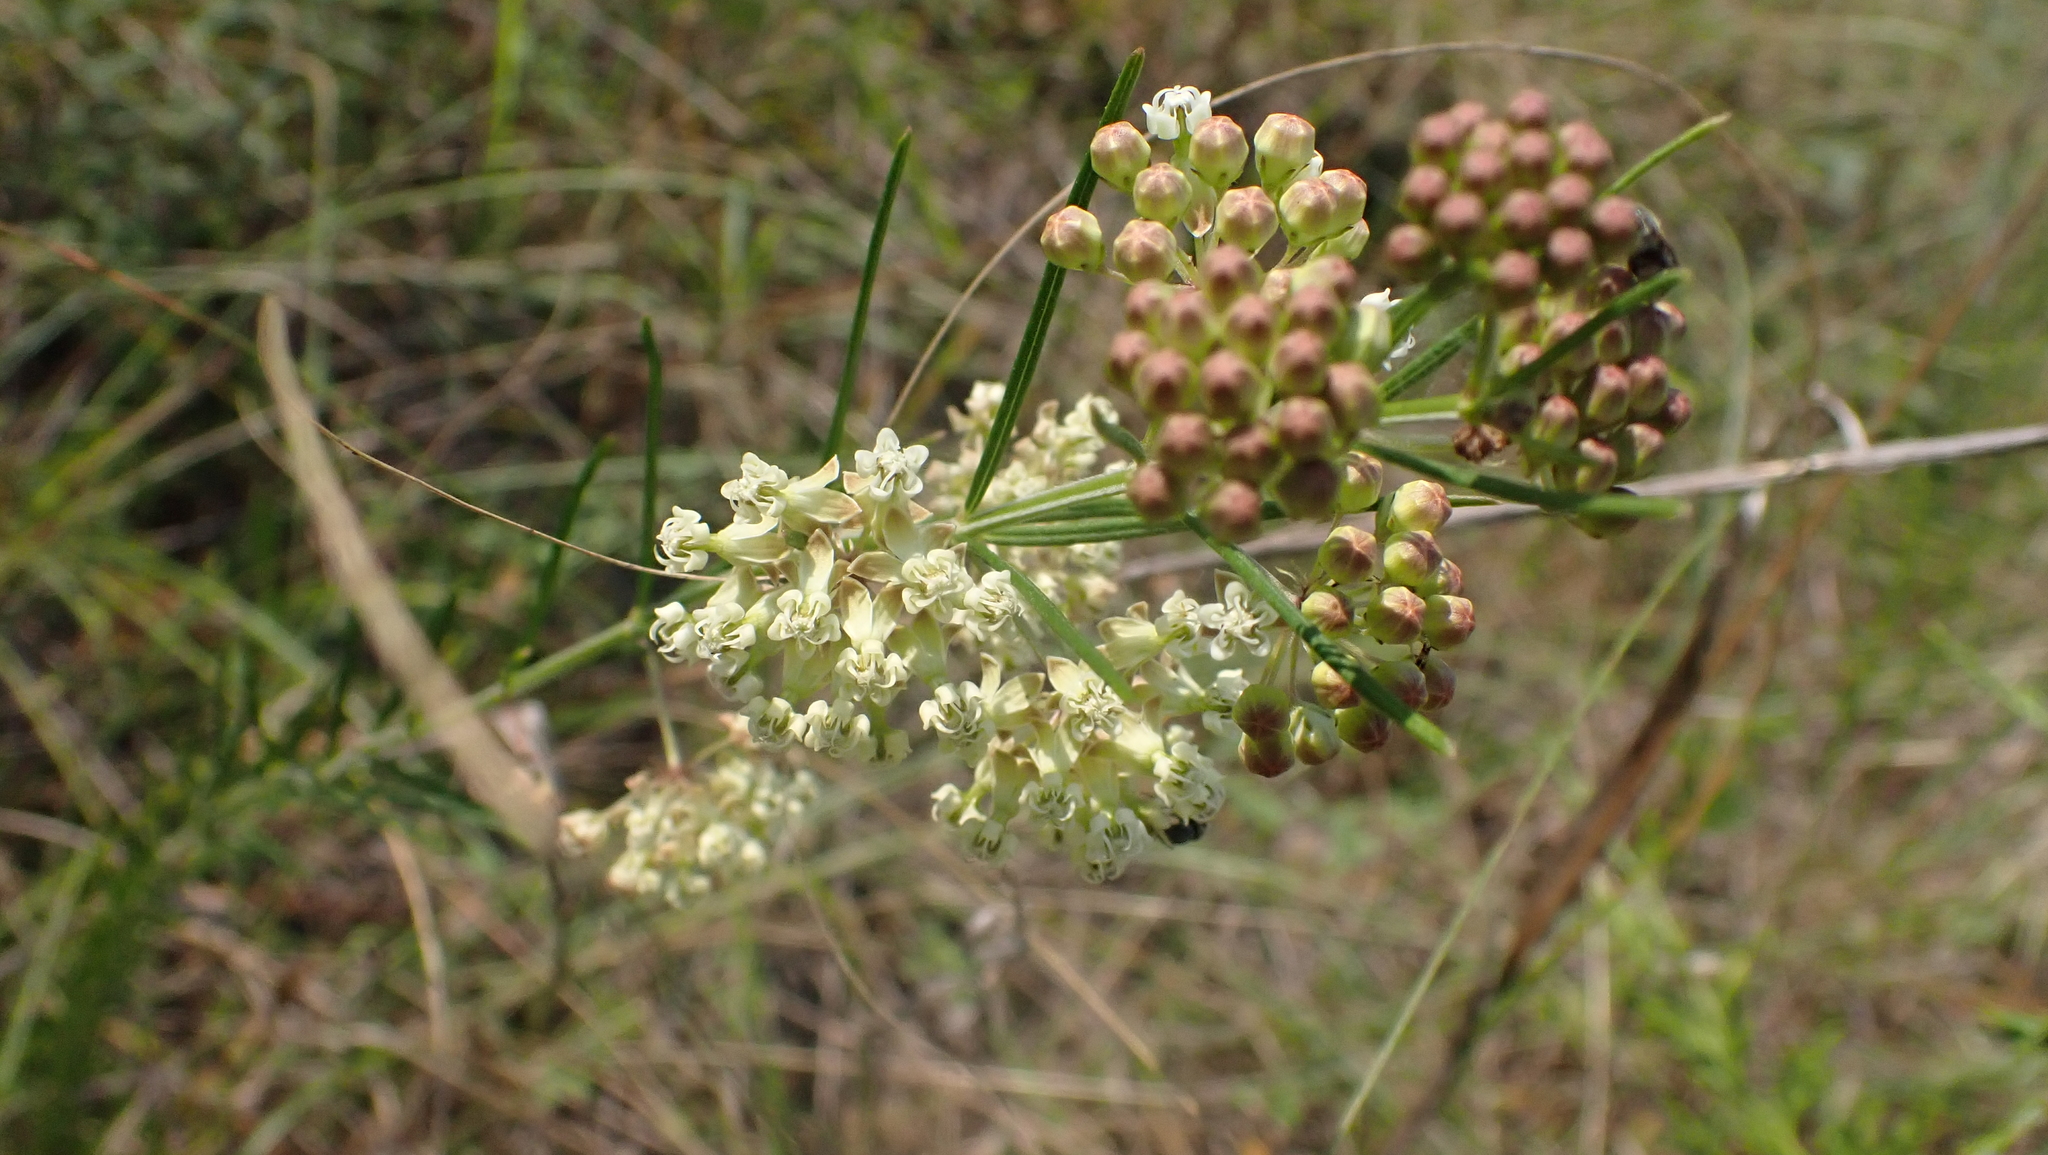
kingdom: Plantae
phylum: Tracheophyta
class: Magnoliopsida
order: Gentianales
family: Apocynaceae
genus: Asclepias
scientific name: Asclepias verticillata
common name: Eastern whorled milkweed
